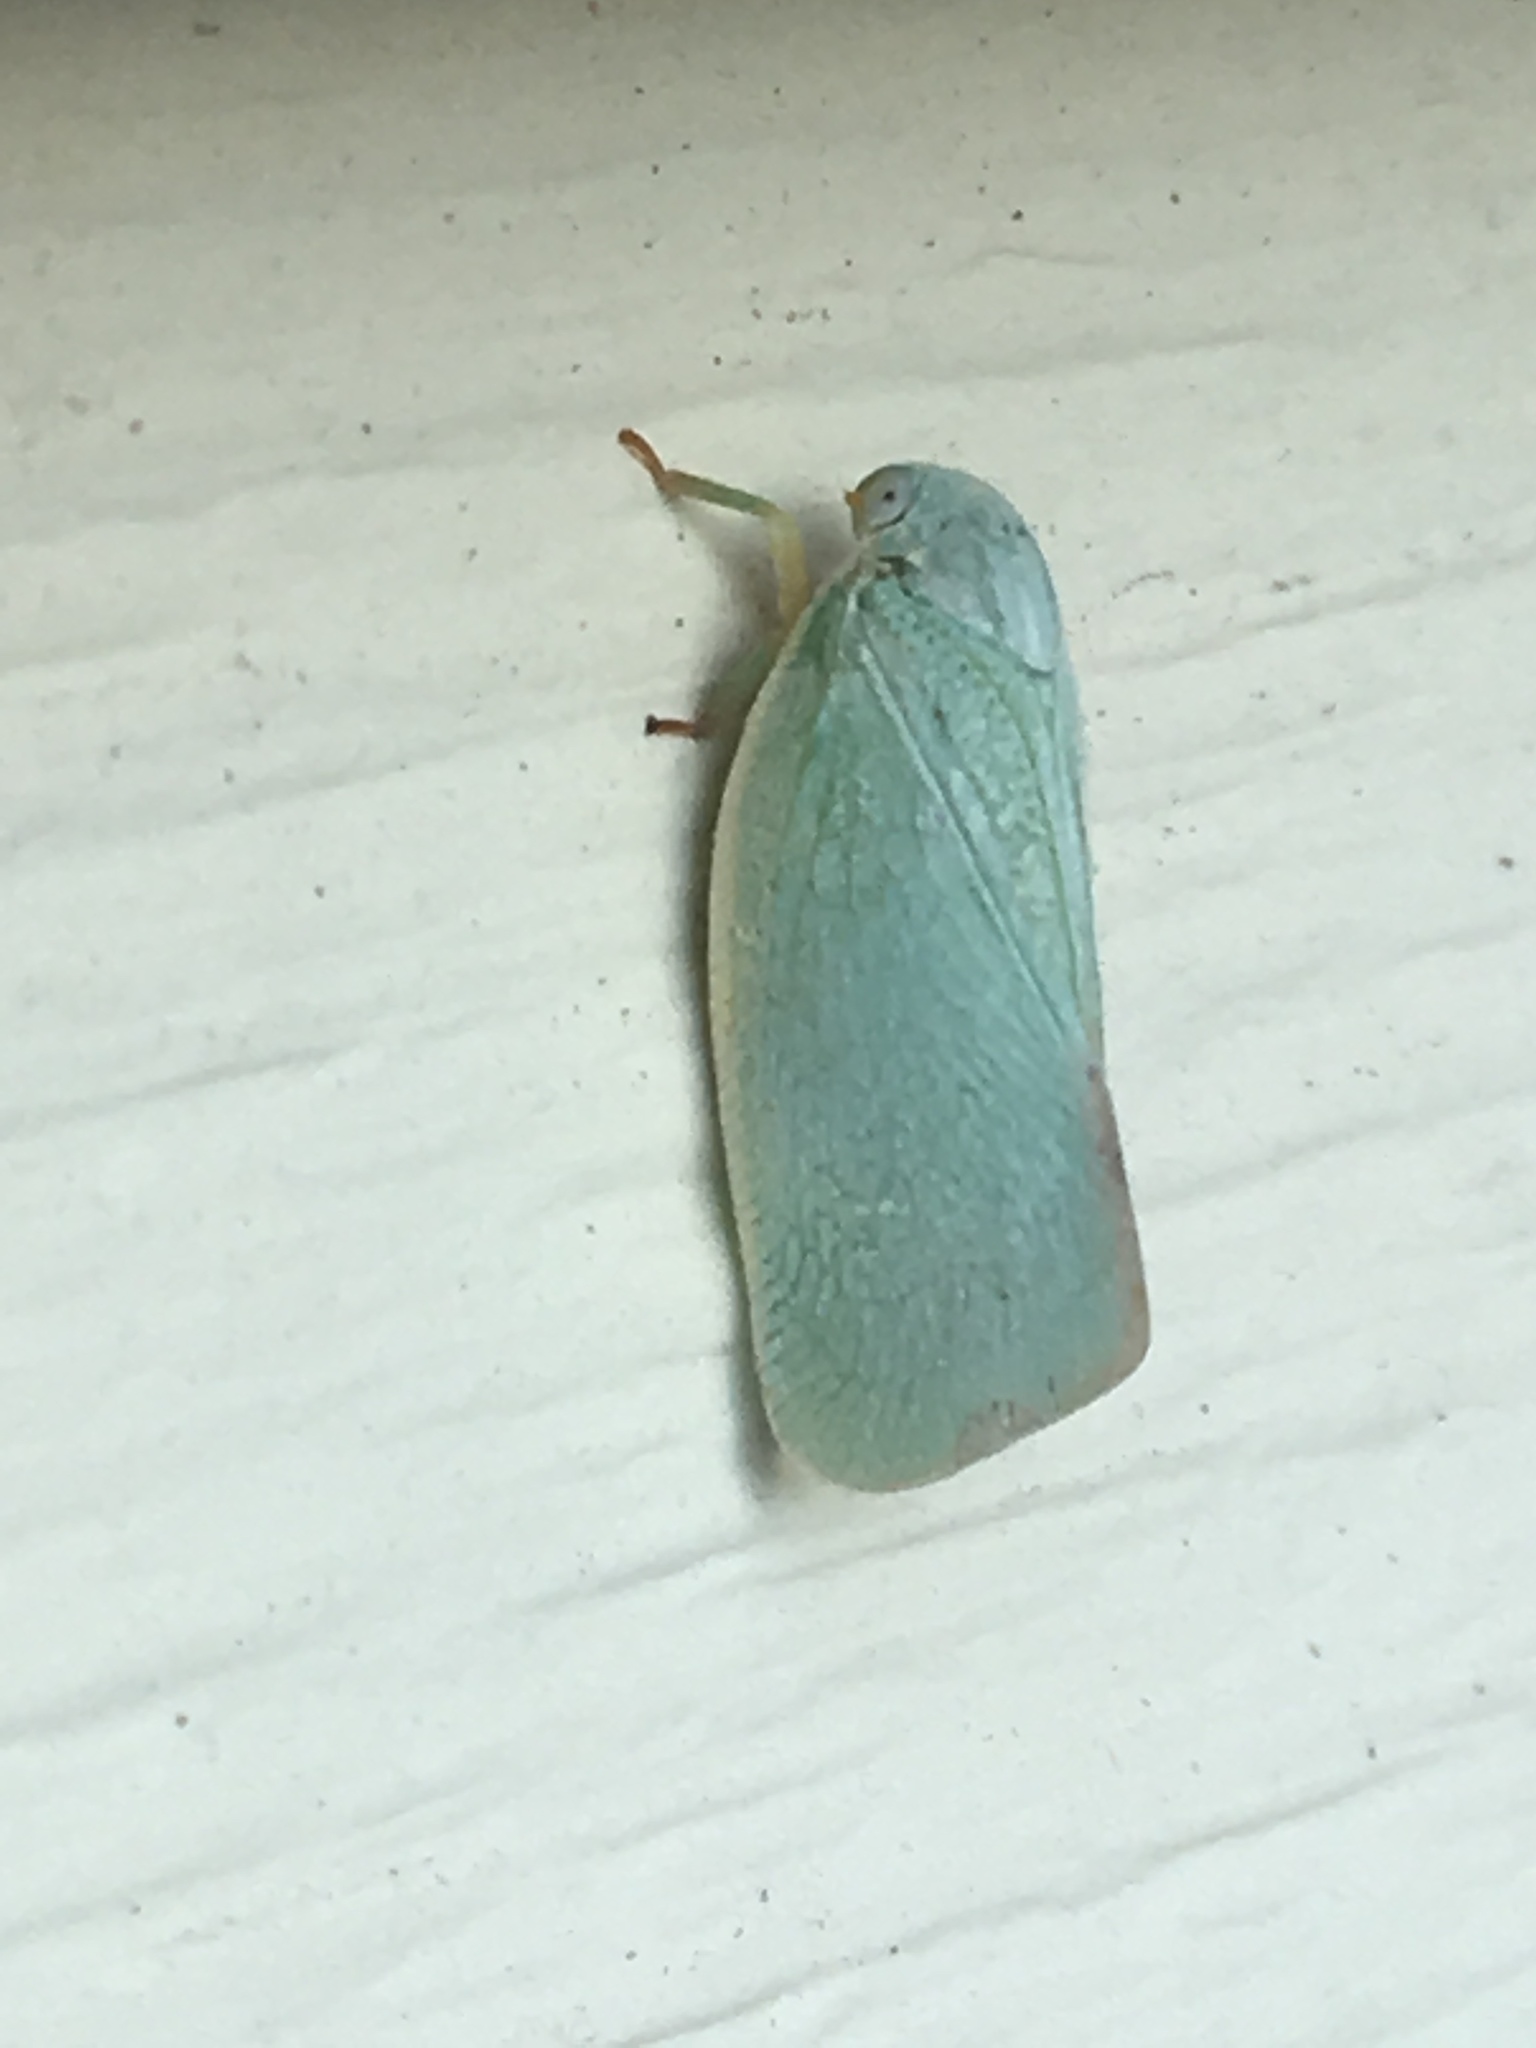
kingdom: Animalia
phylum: Arthropoda
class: Insecta
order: Hemiptera
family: Flatidae
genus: Flatormenis
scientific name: Flatormenis proxima
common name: Northern flatid planthopper
